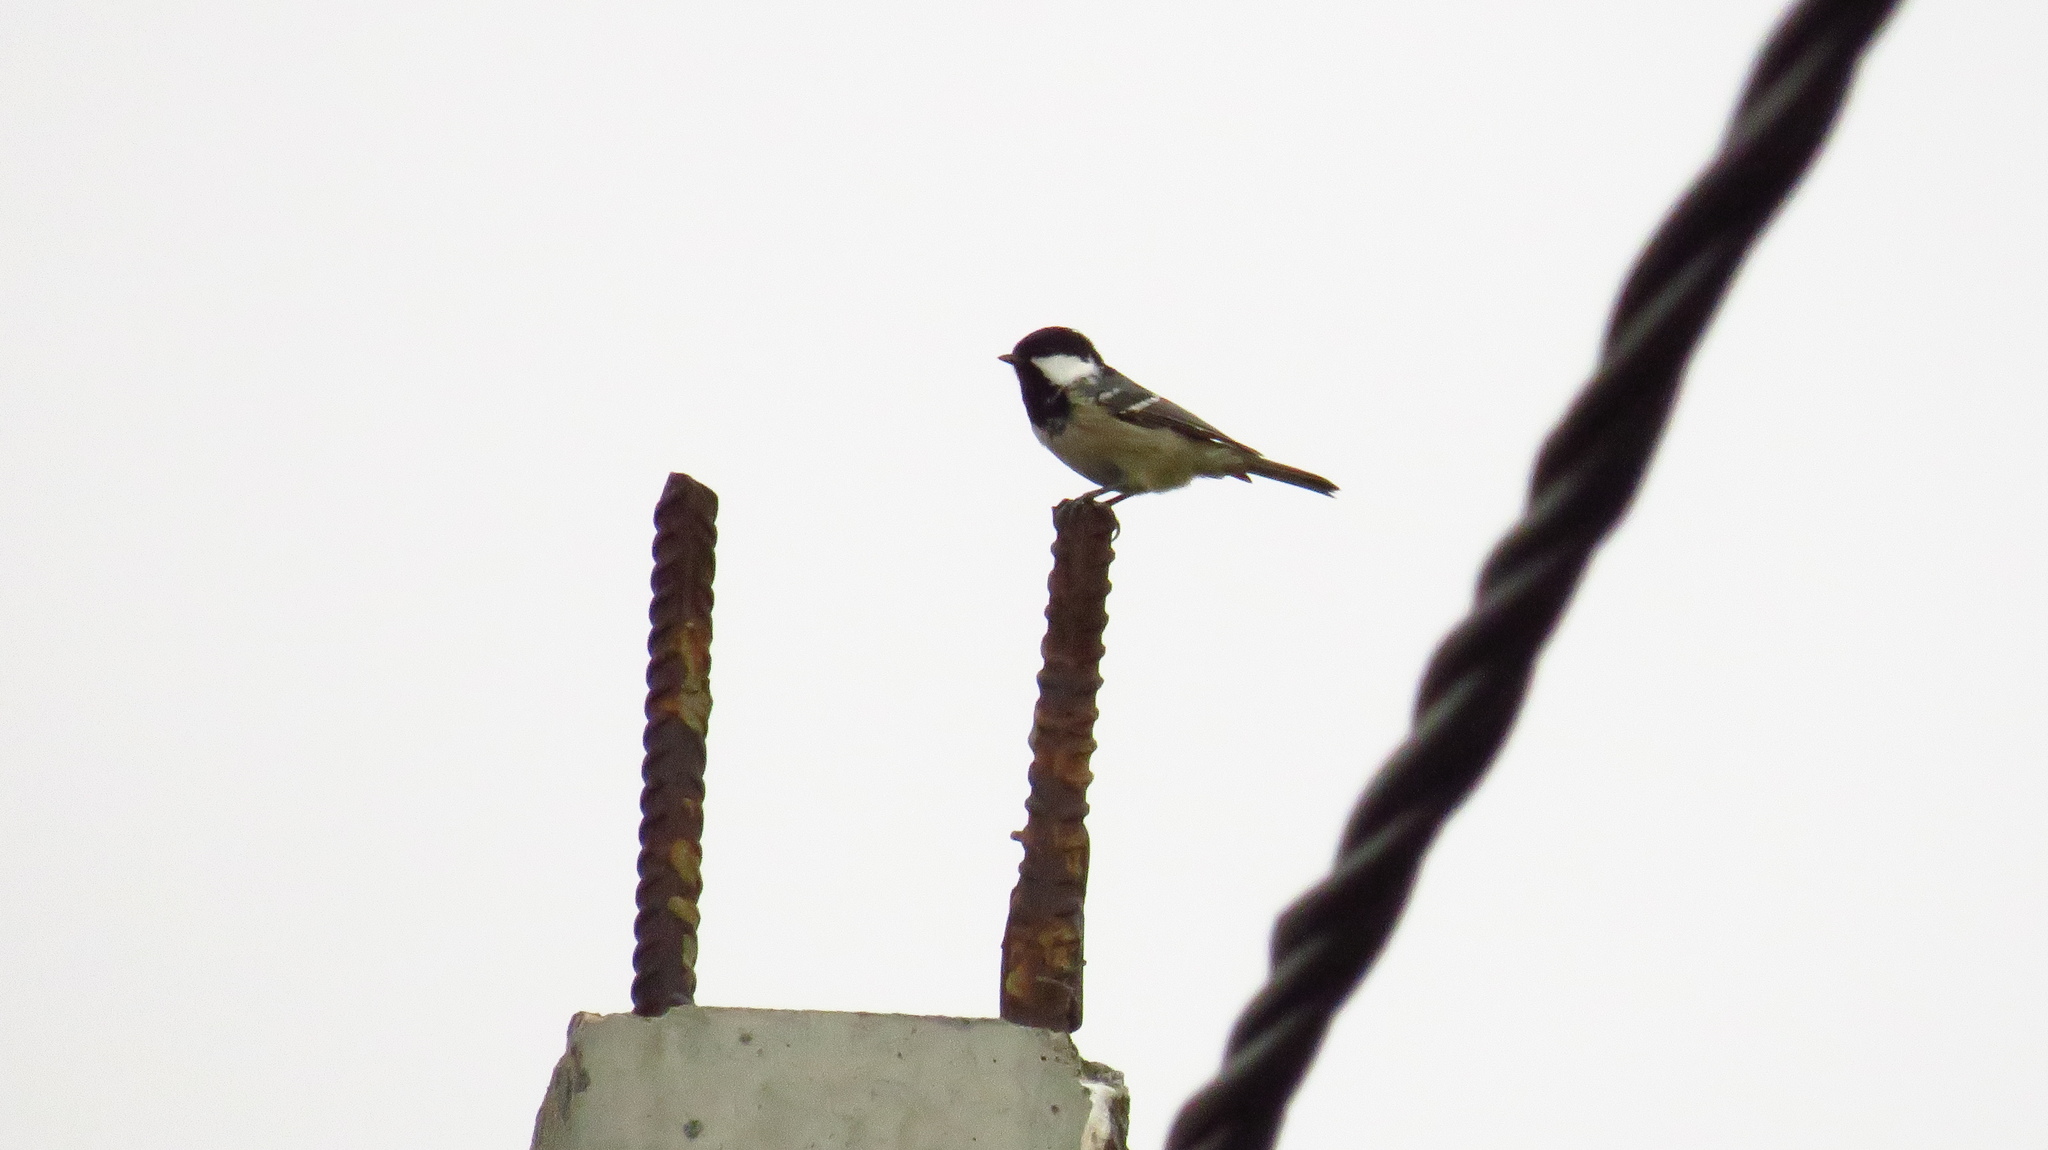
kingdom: Animalia
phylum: Chordata
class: Aves
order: Passeriformes
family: Paridae
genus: Periparus
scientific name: Periparus ater
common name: Coal tit
